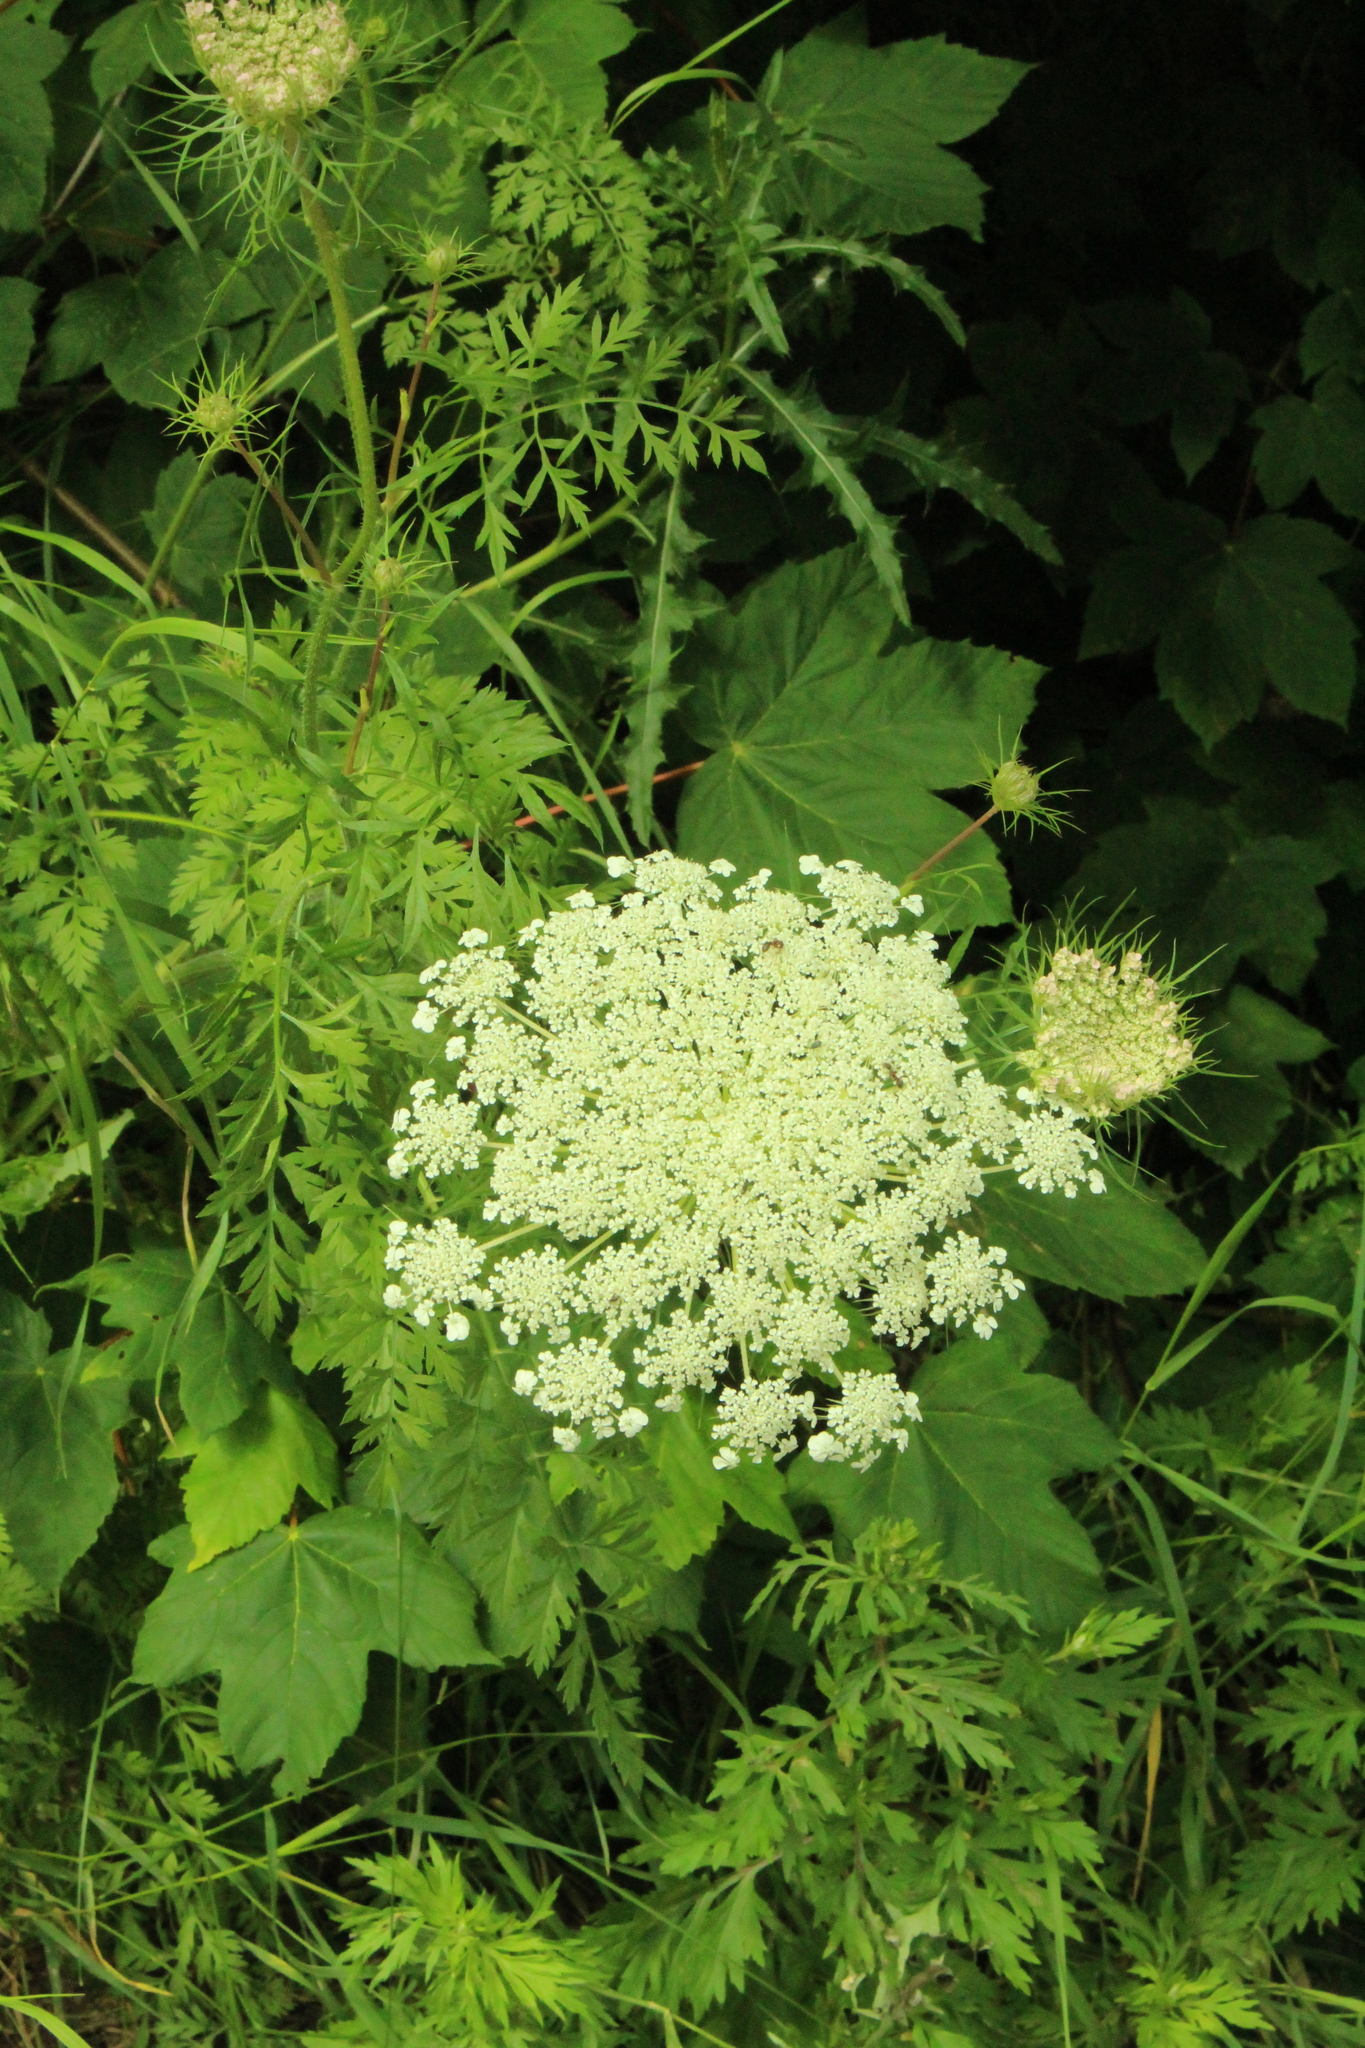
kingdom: Plantae
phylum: Tracheophyta
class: Magnoliopsida
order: Apiales
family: Apiaceae
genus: Daucus
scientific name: Daucus carota
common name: Wild carrot
